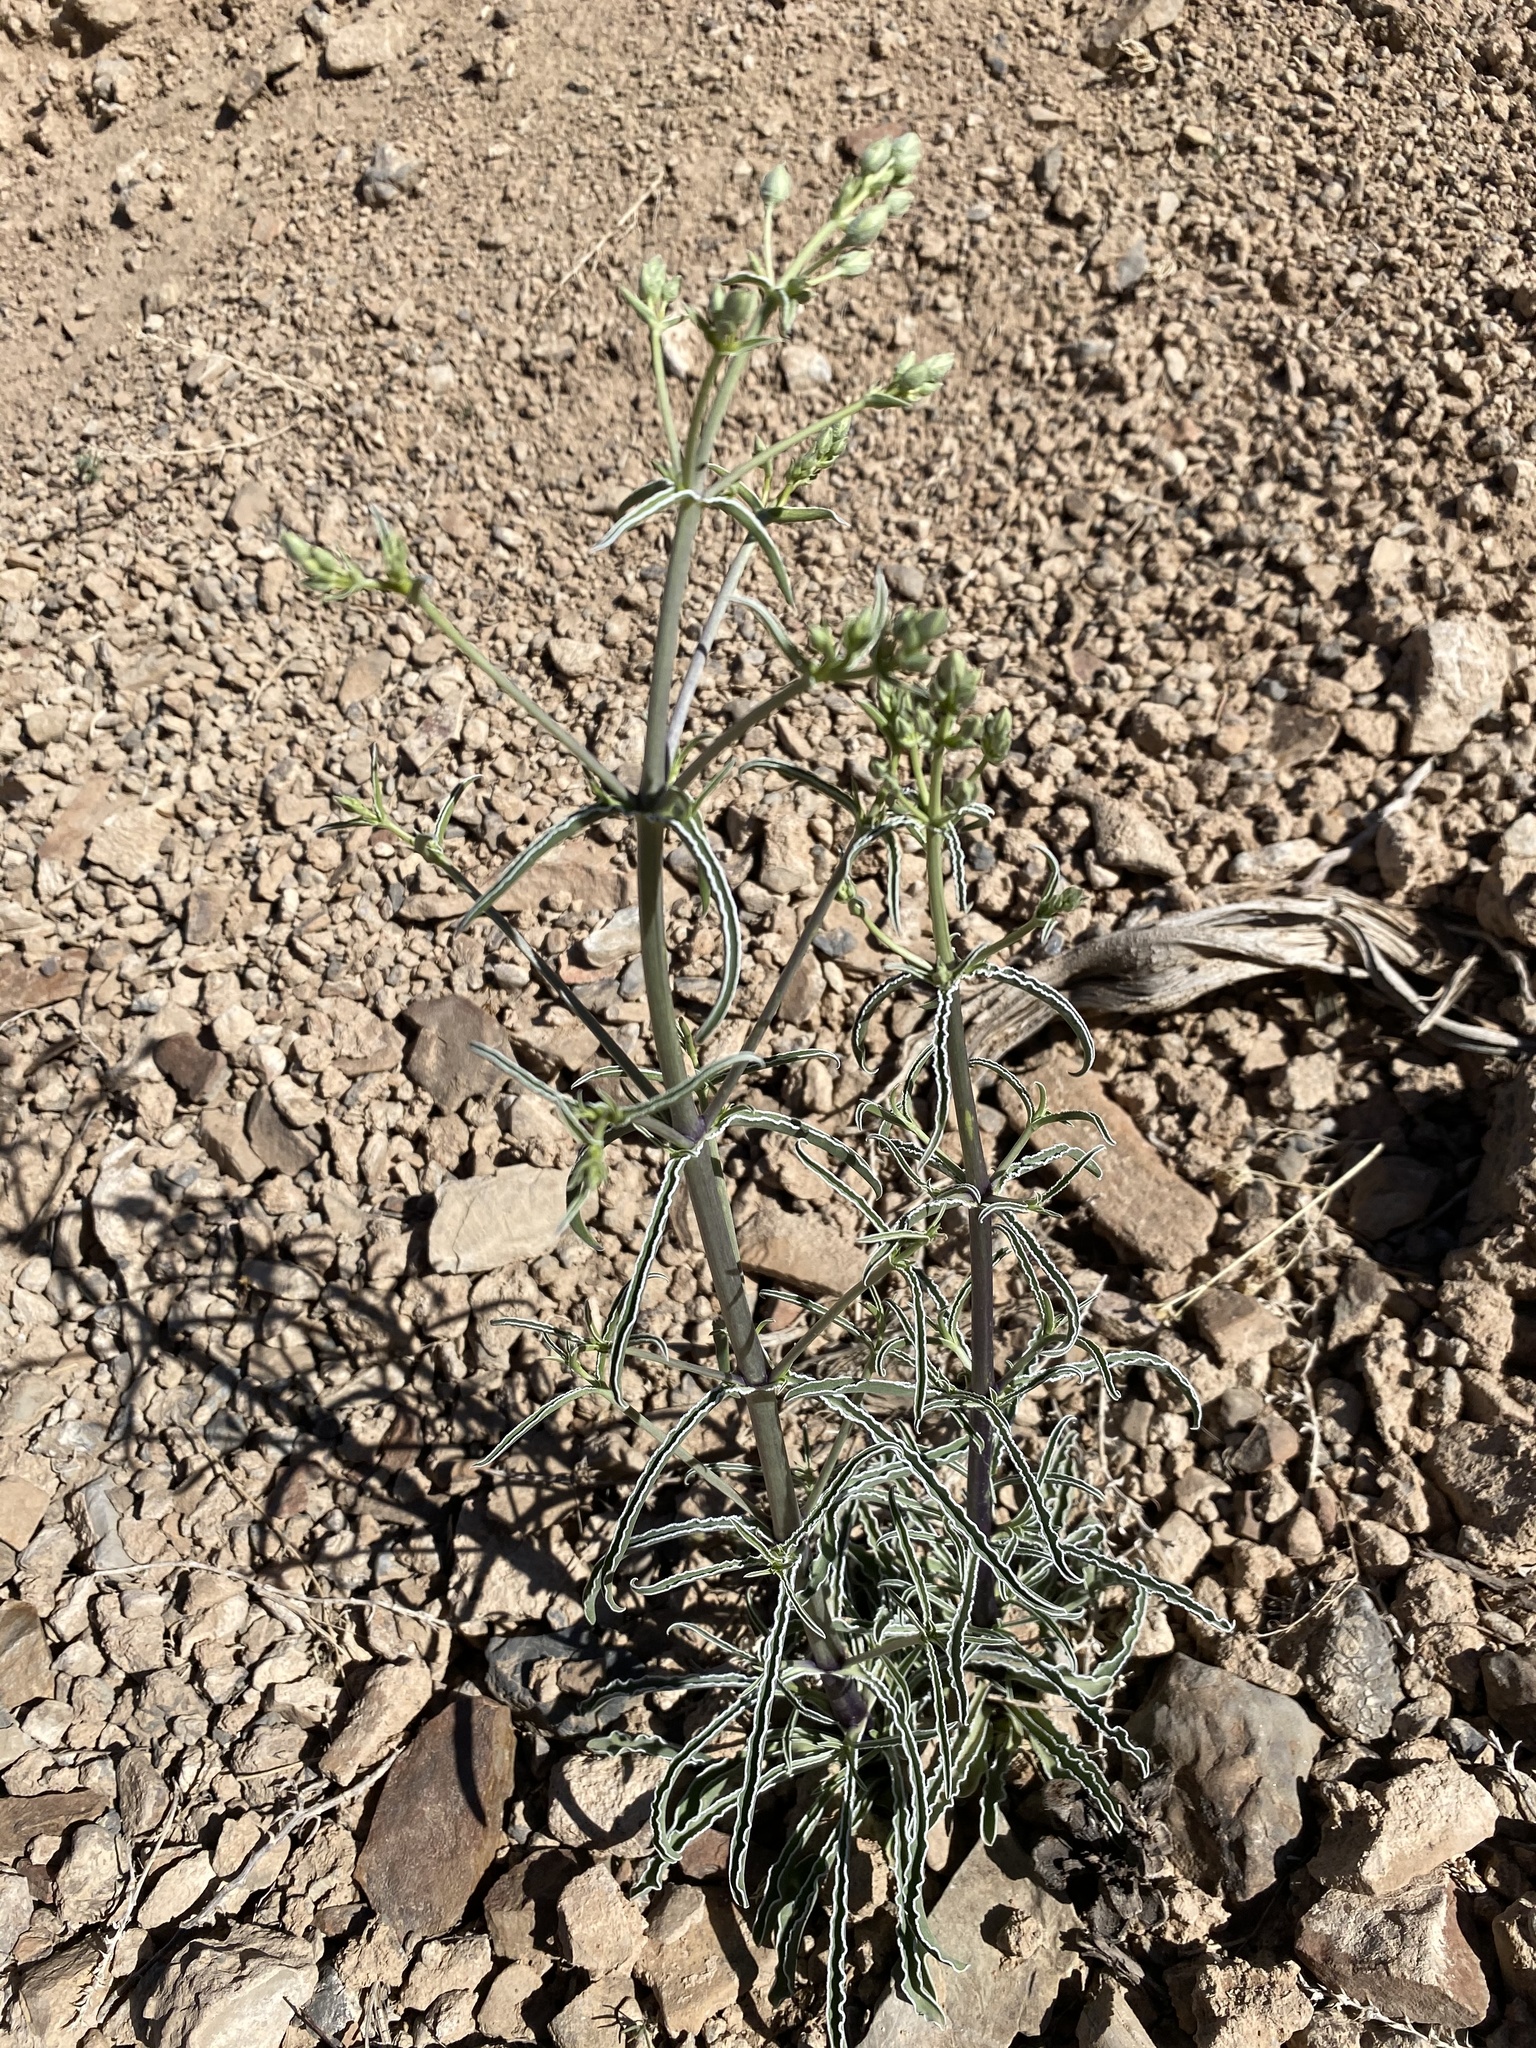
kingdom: Plantae
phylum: Tracheophyta
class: Magnoliopsida
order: Gentianales
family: Gentianaceae
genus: Frasera
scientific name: Frasera albomarginata
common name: Desert frasera
